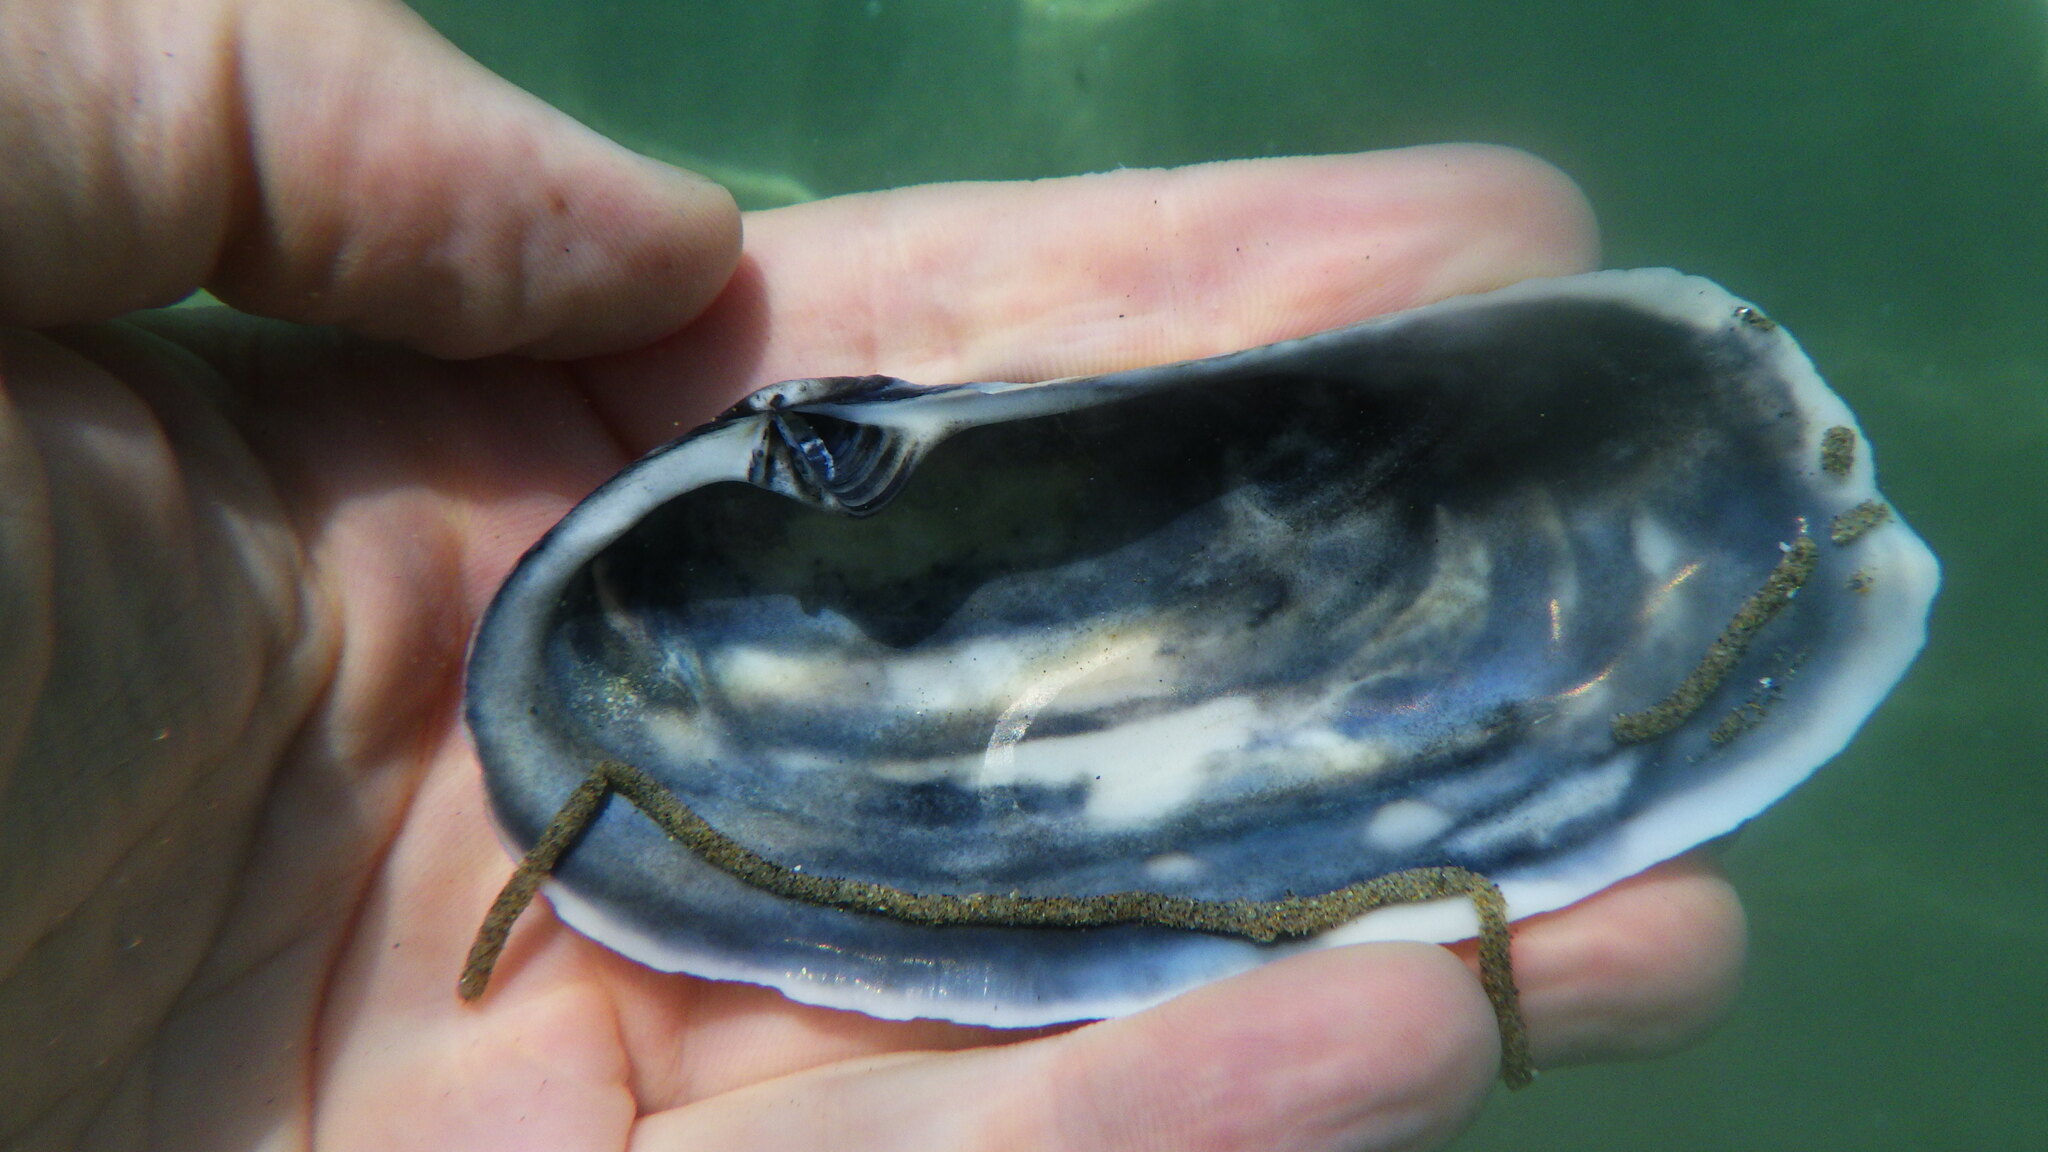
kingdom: Animalia
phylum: Mollusca
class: Bivalvia
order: Venerida
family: Mactridae
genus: Lutraria
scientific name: Lutraria oblonga
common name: Oblong otter clam
